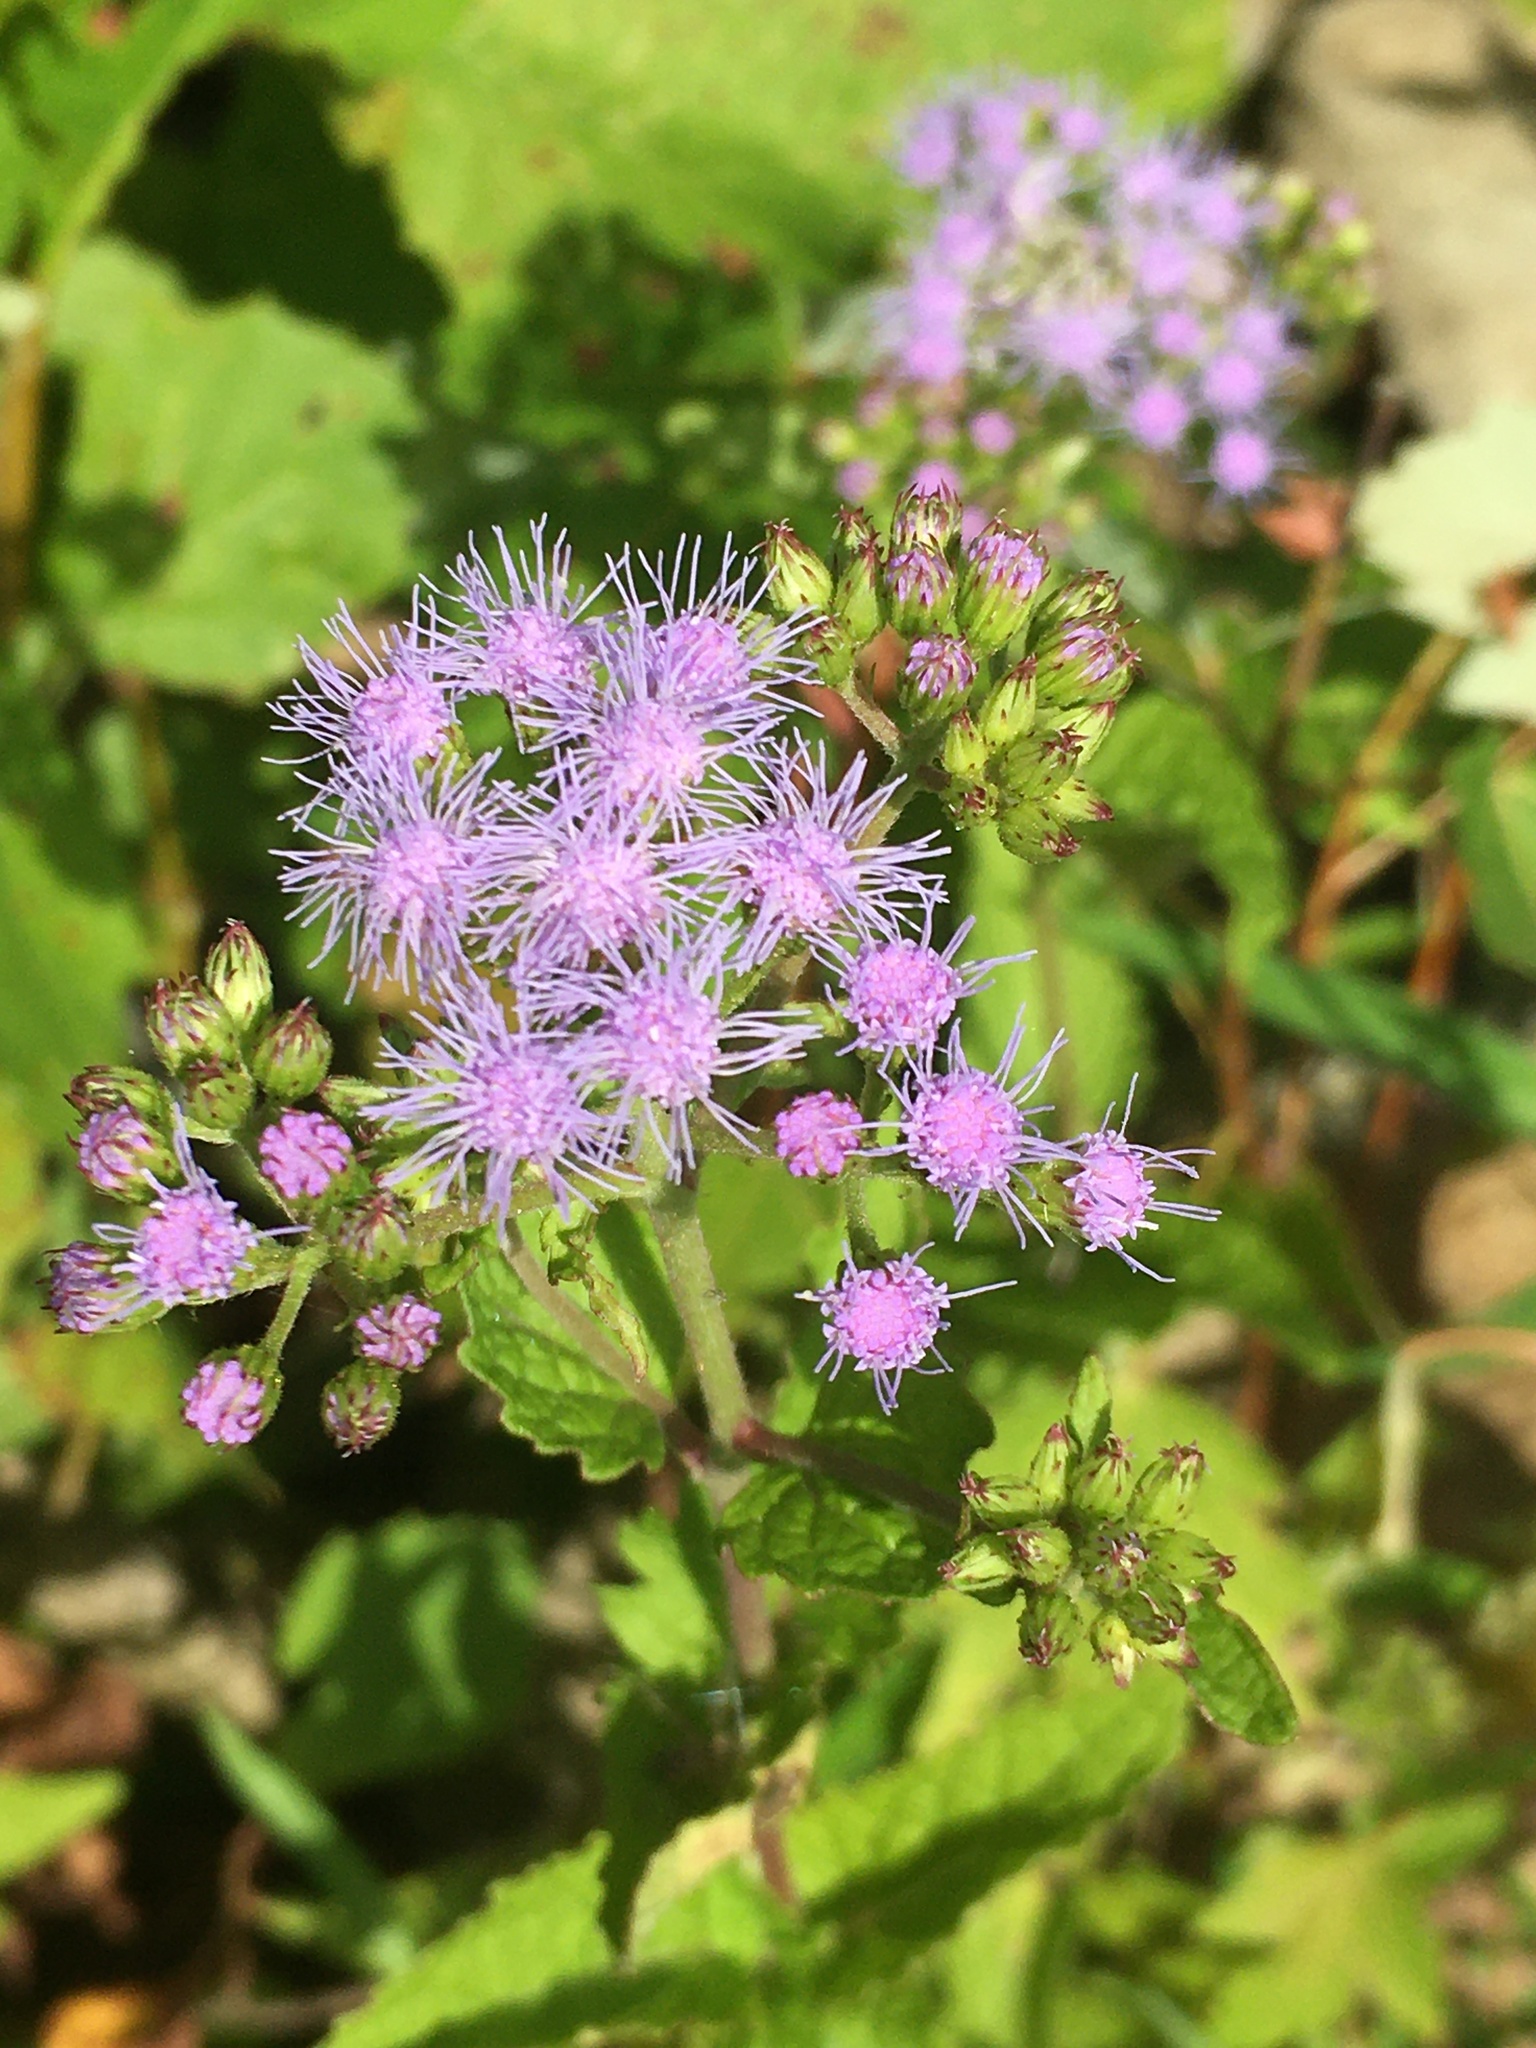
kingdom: Plantae
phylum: Tracheophyta
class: Magnoliopsida
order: Asterales
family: Asteraceae
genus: Conoclinium
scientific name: Conoclinium coelestinum
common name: Blue mistflower
